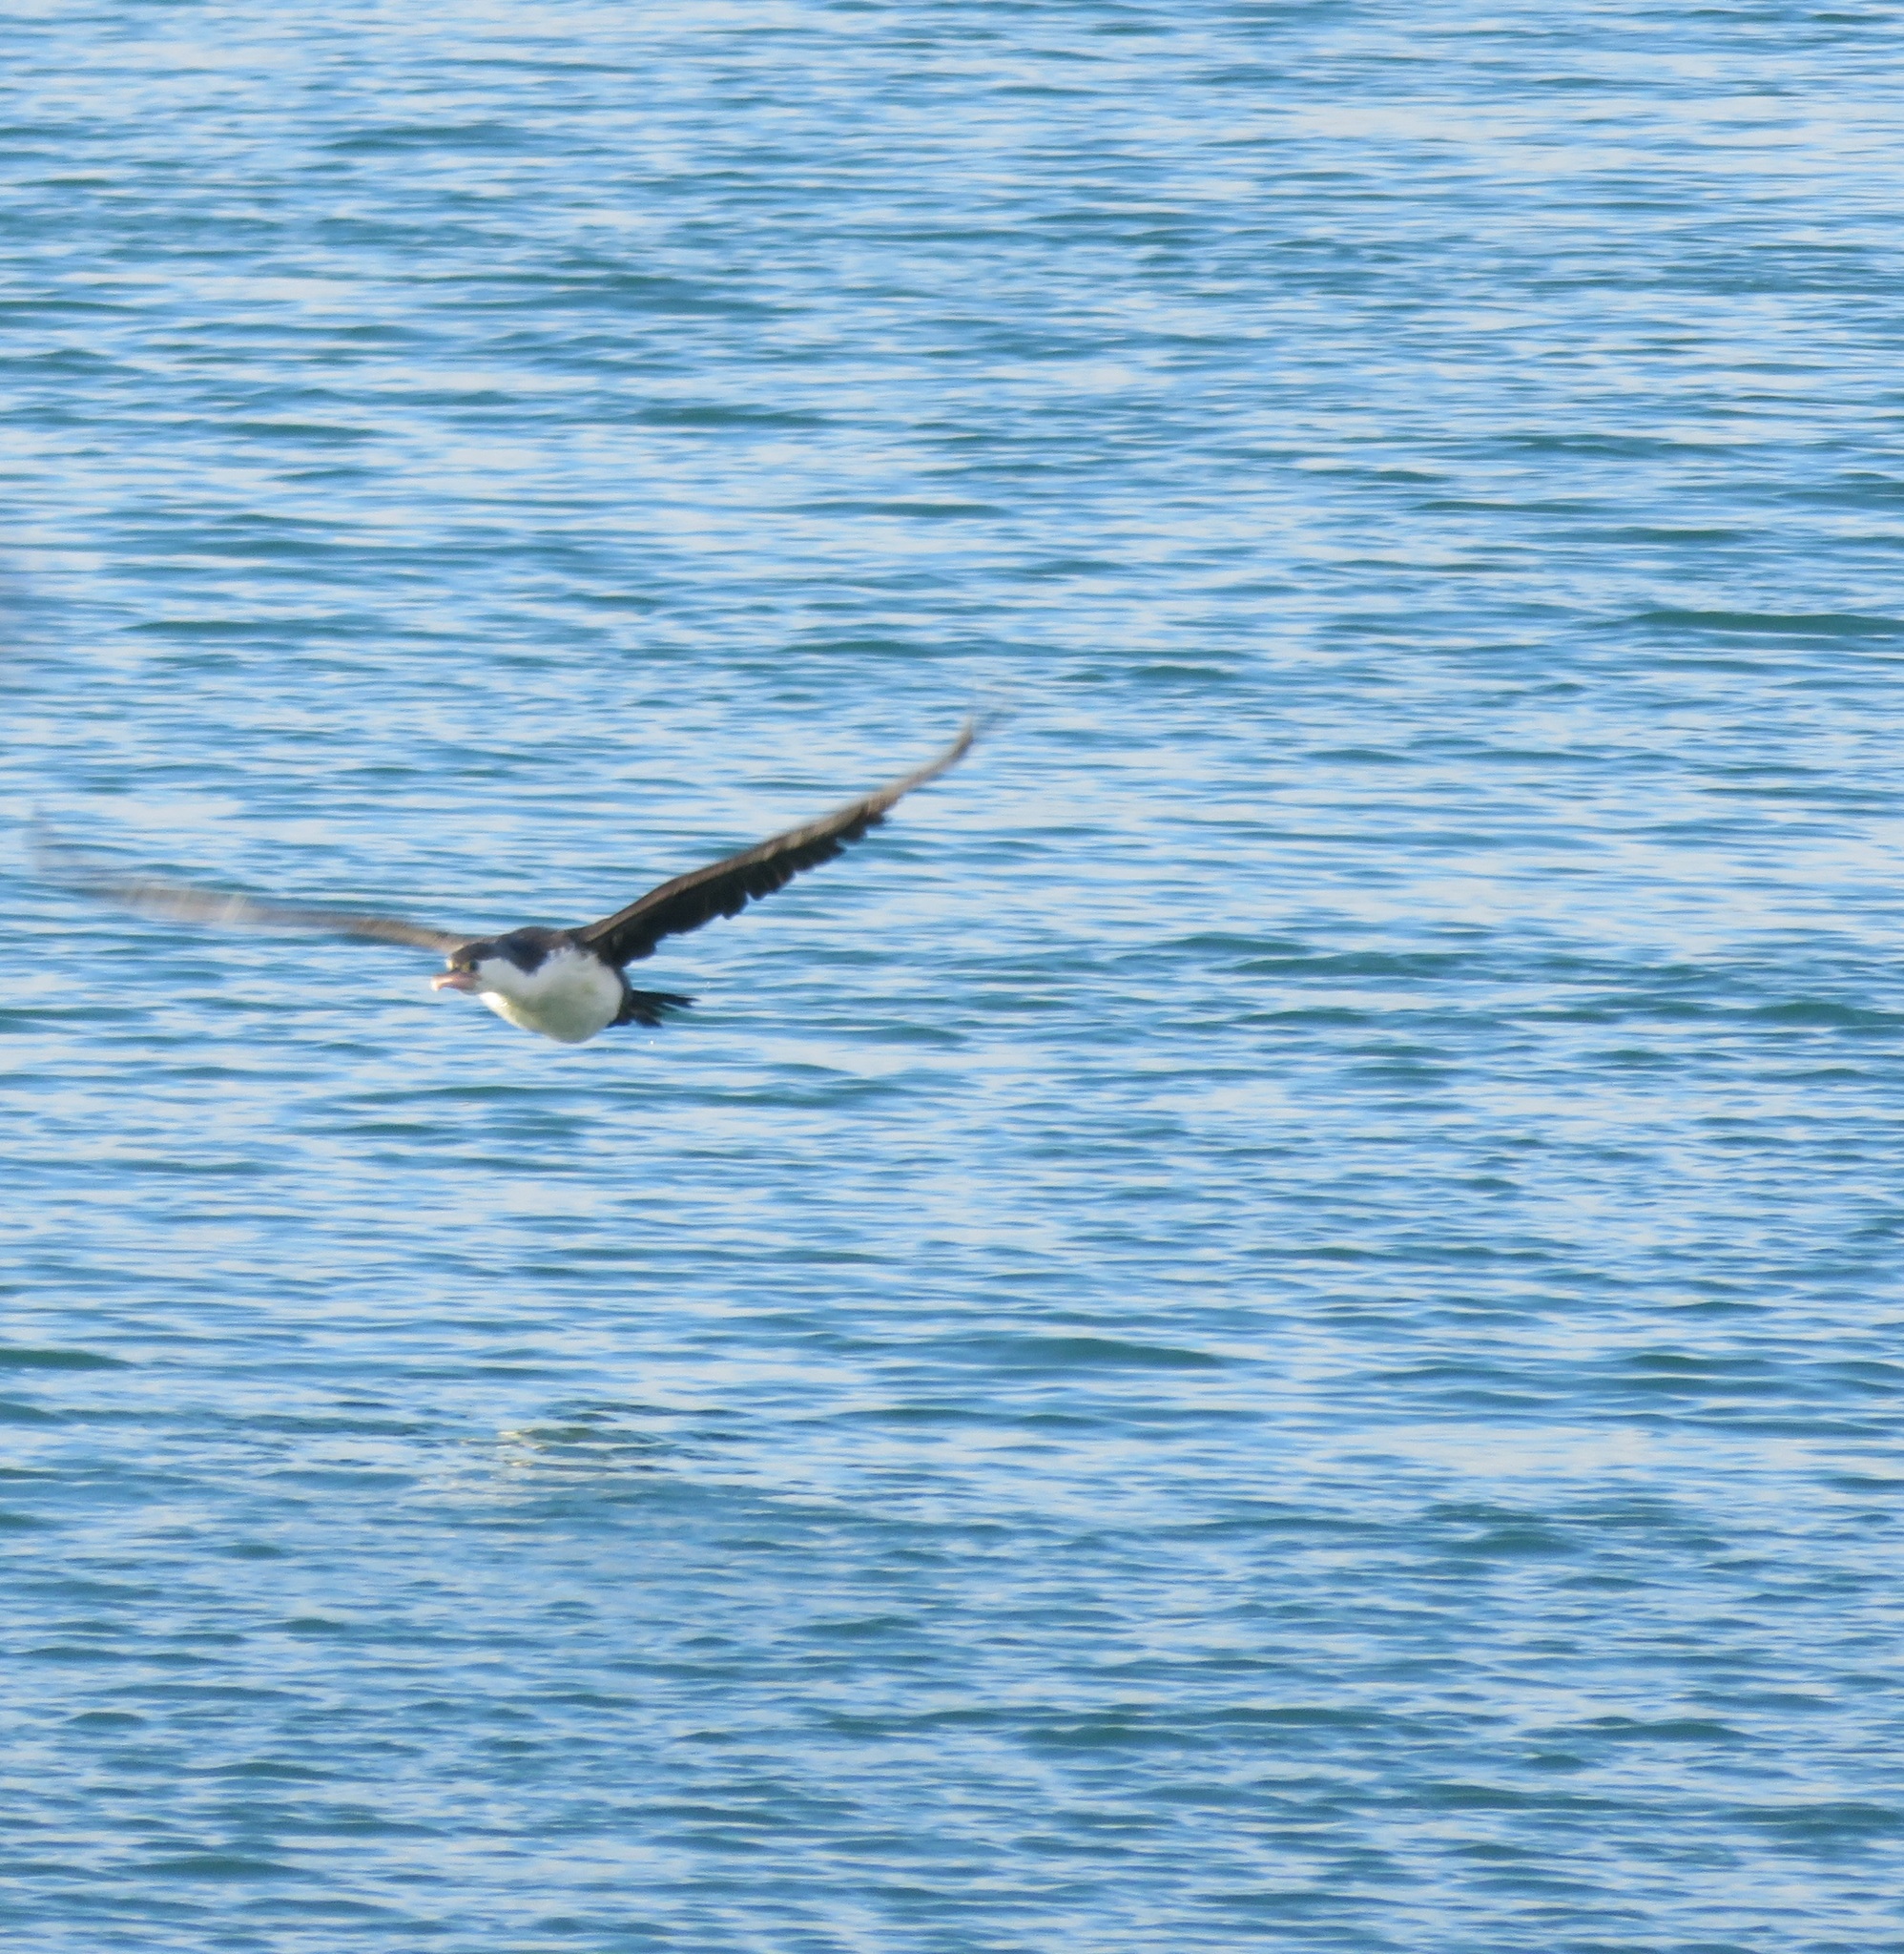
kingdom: Animalia
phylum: Chordata
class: Aves
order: Suliformes
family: Phalacrocoracidae
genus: Phalacrocorax
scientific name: Phalacrocorax varius
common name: Pied cormorant
